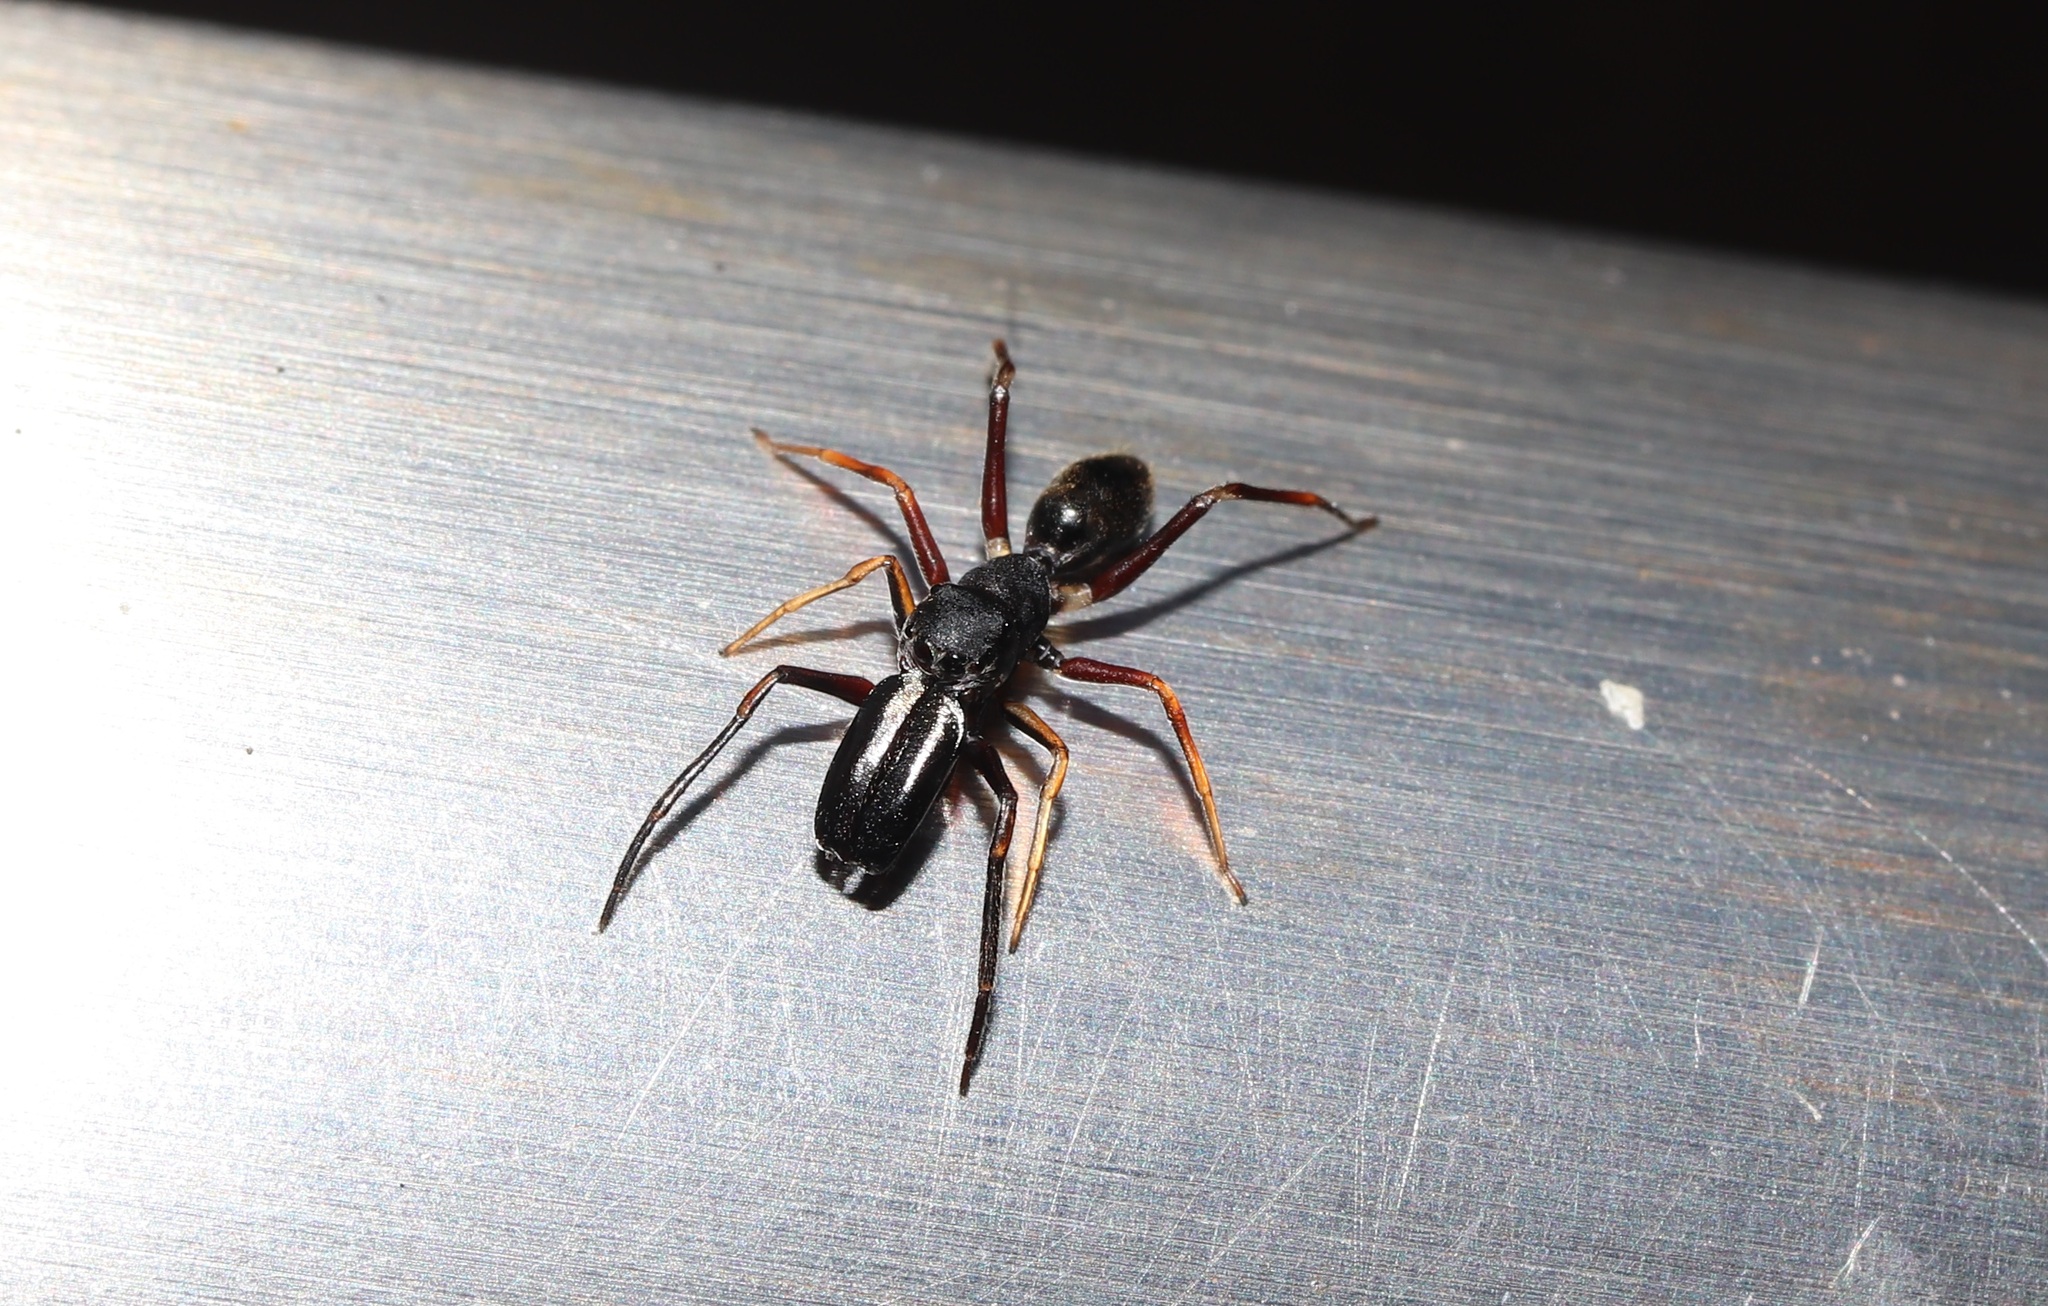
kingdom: Animalia
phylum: Arthropoda
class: Arachnida
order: Araneae
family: Salticidae
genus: Myrmarachne
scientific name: Myrmarachne japonica
